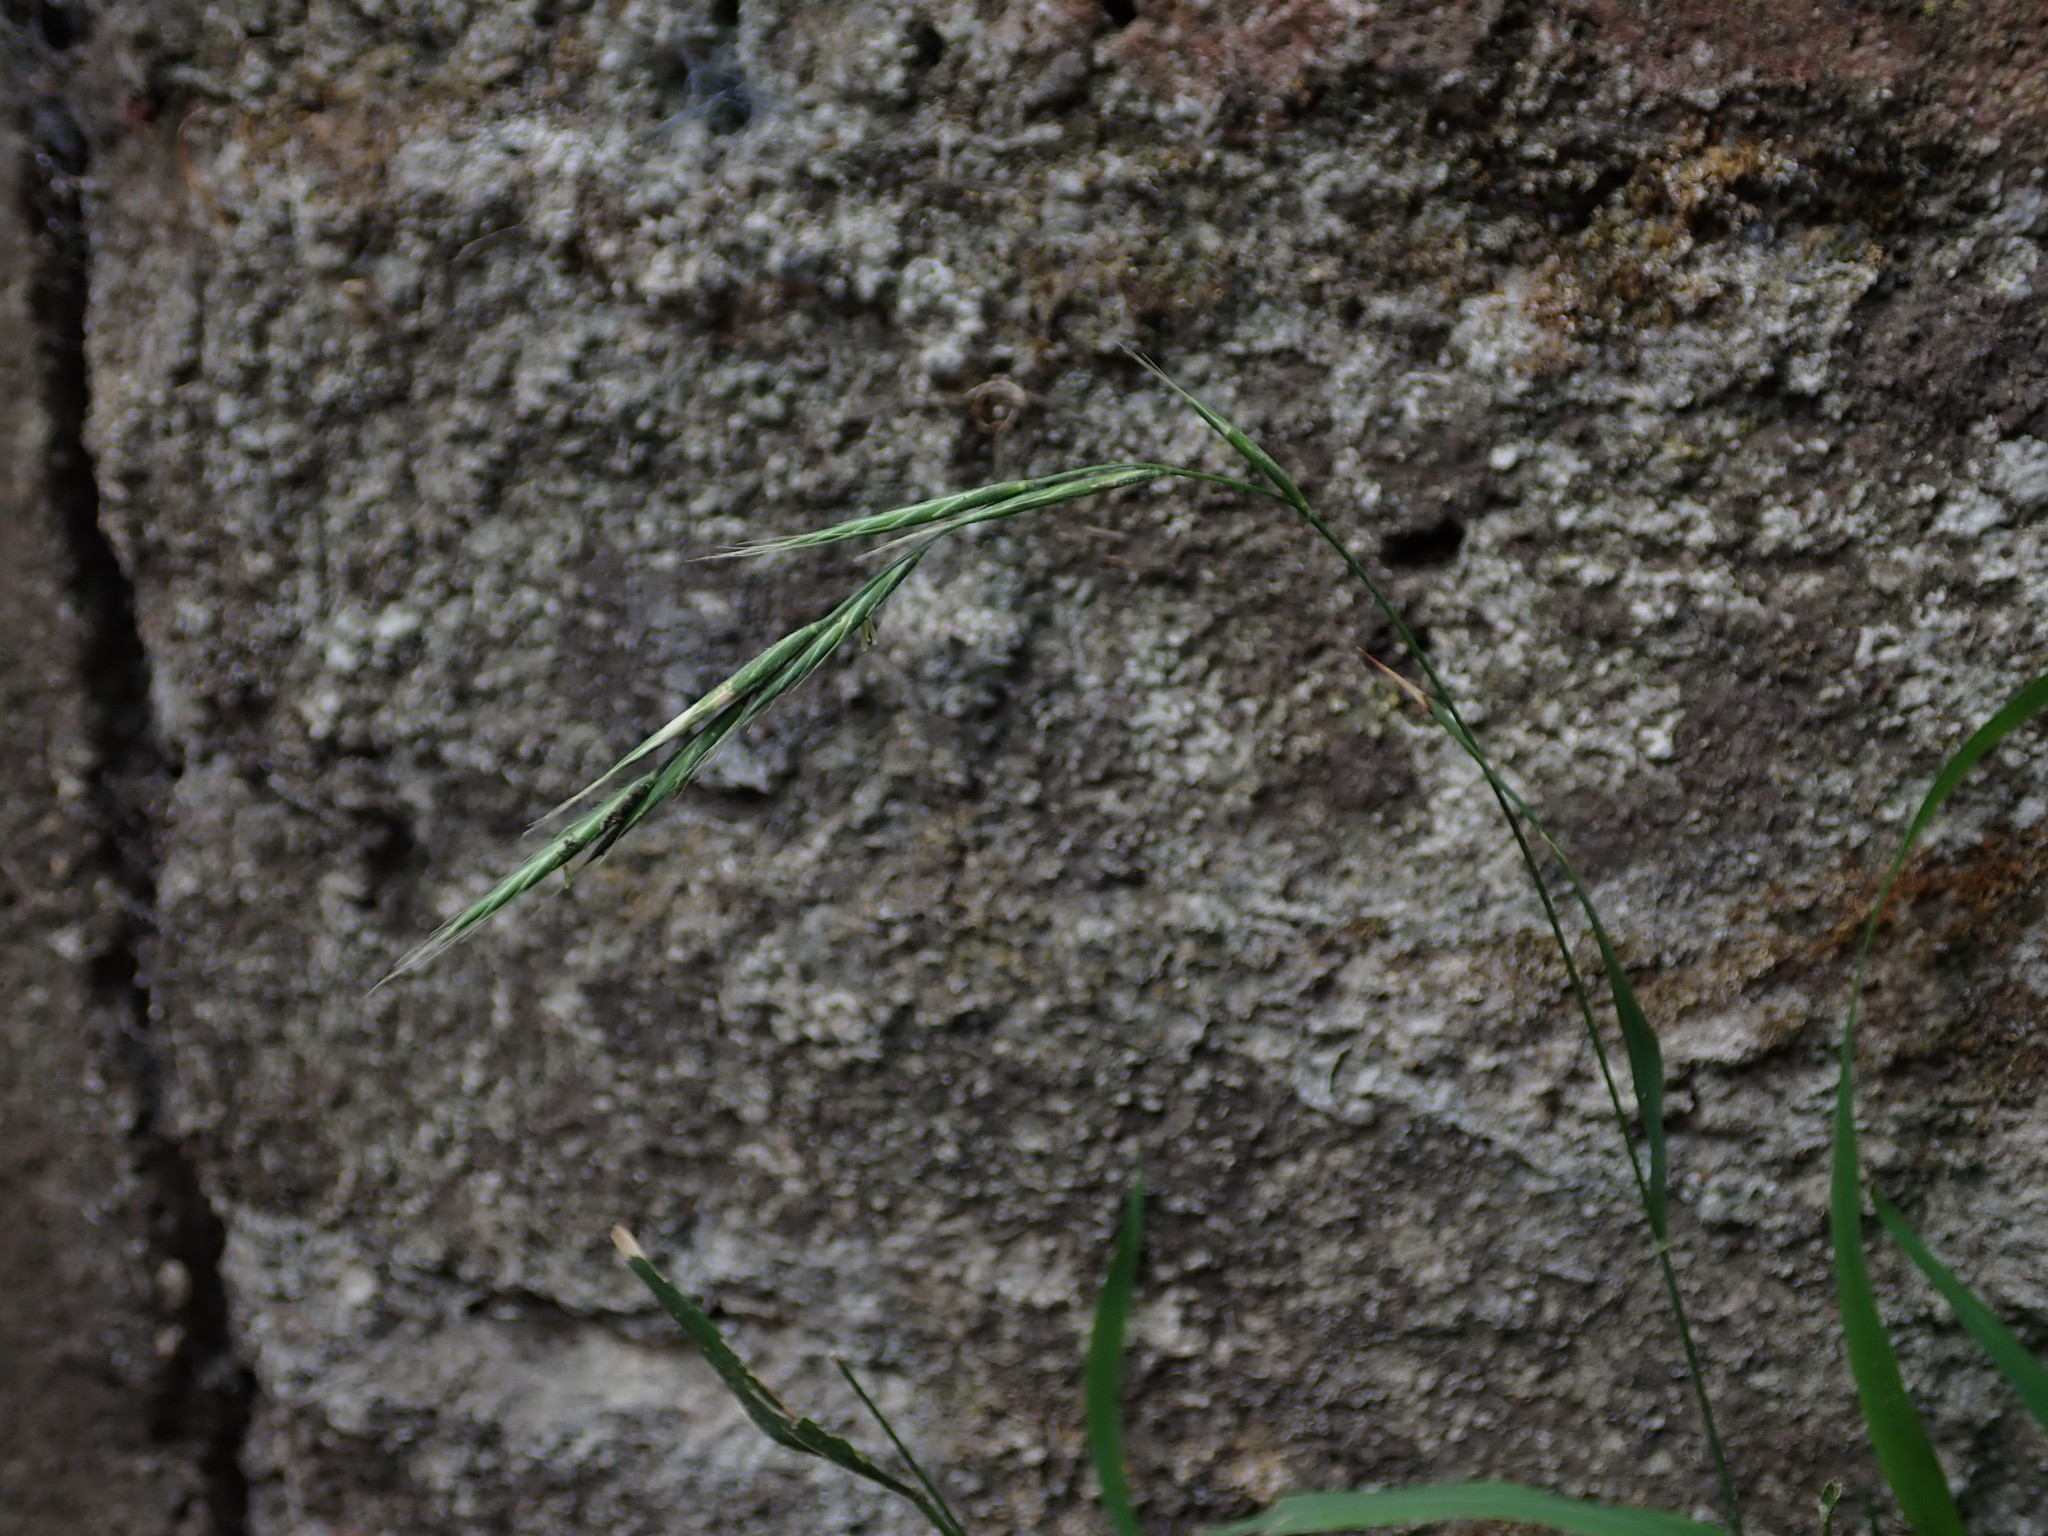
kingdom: Plantae
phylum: Tracheophyta
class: Liliopsida
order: Poales
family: Poaceae
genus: Brachypodium
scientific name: Brachypodium sylvaticum
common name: False-brome
